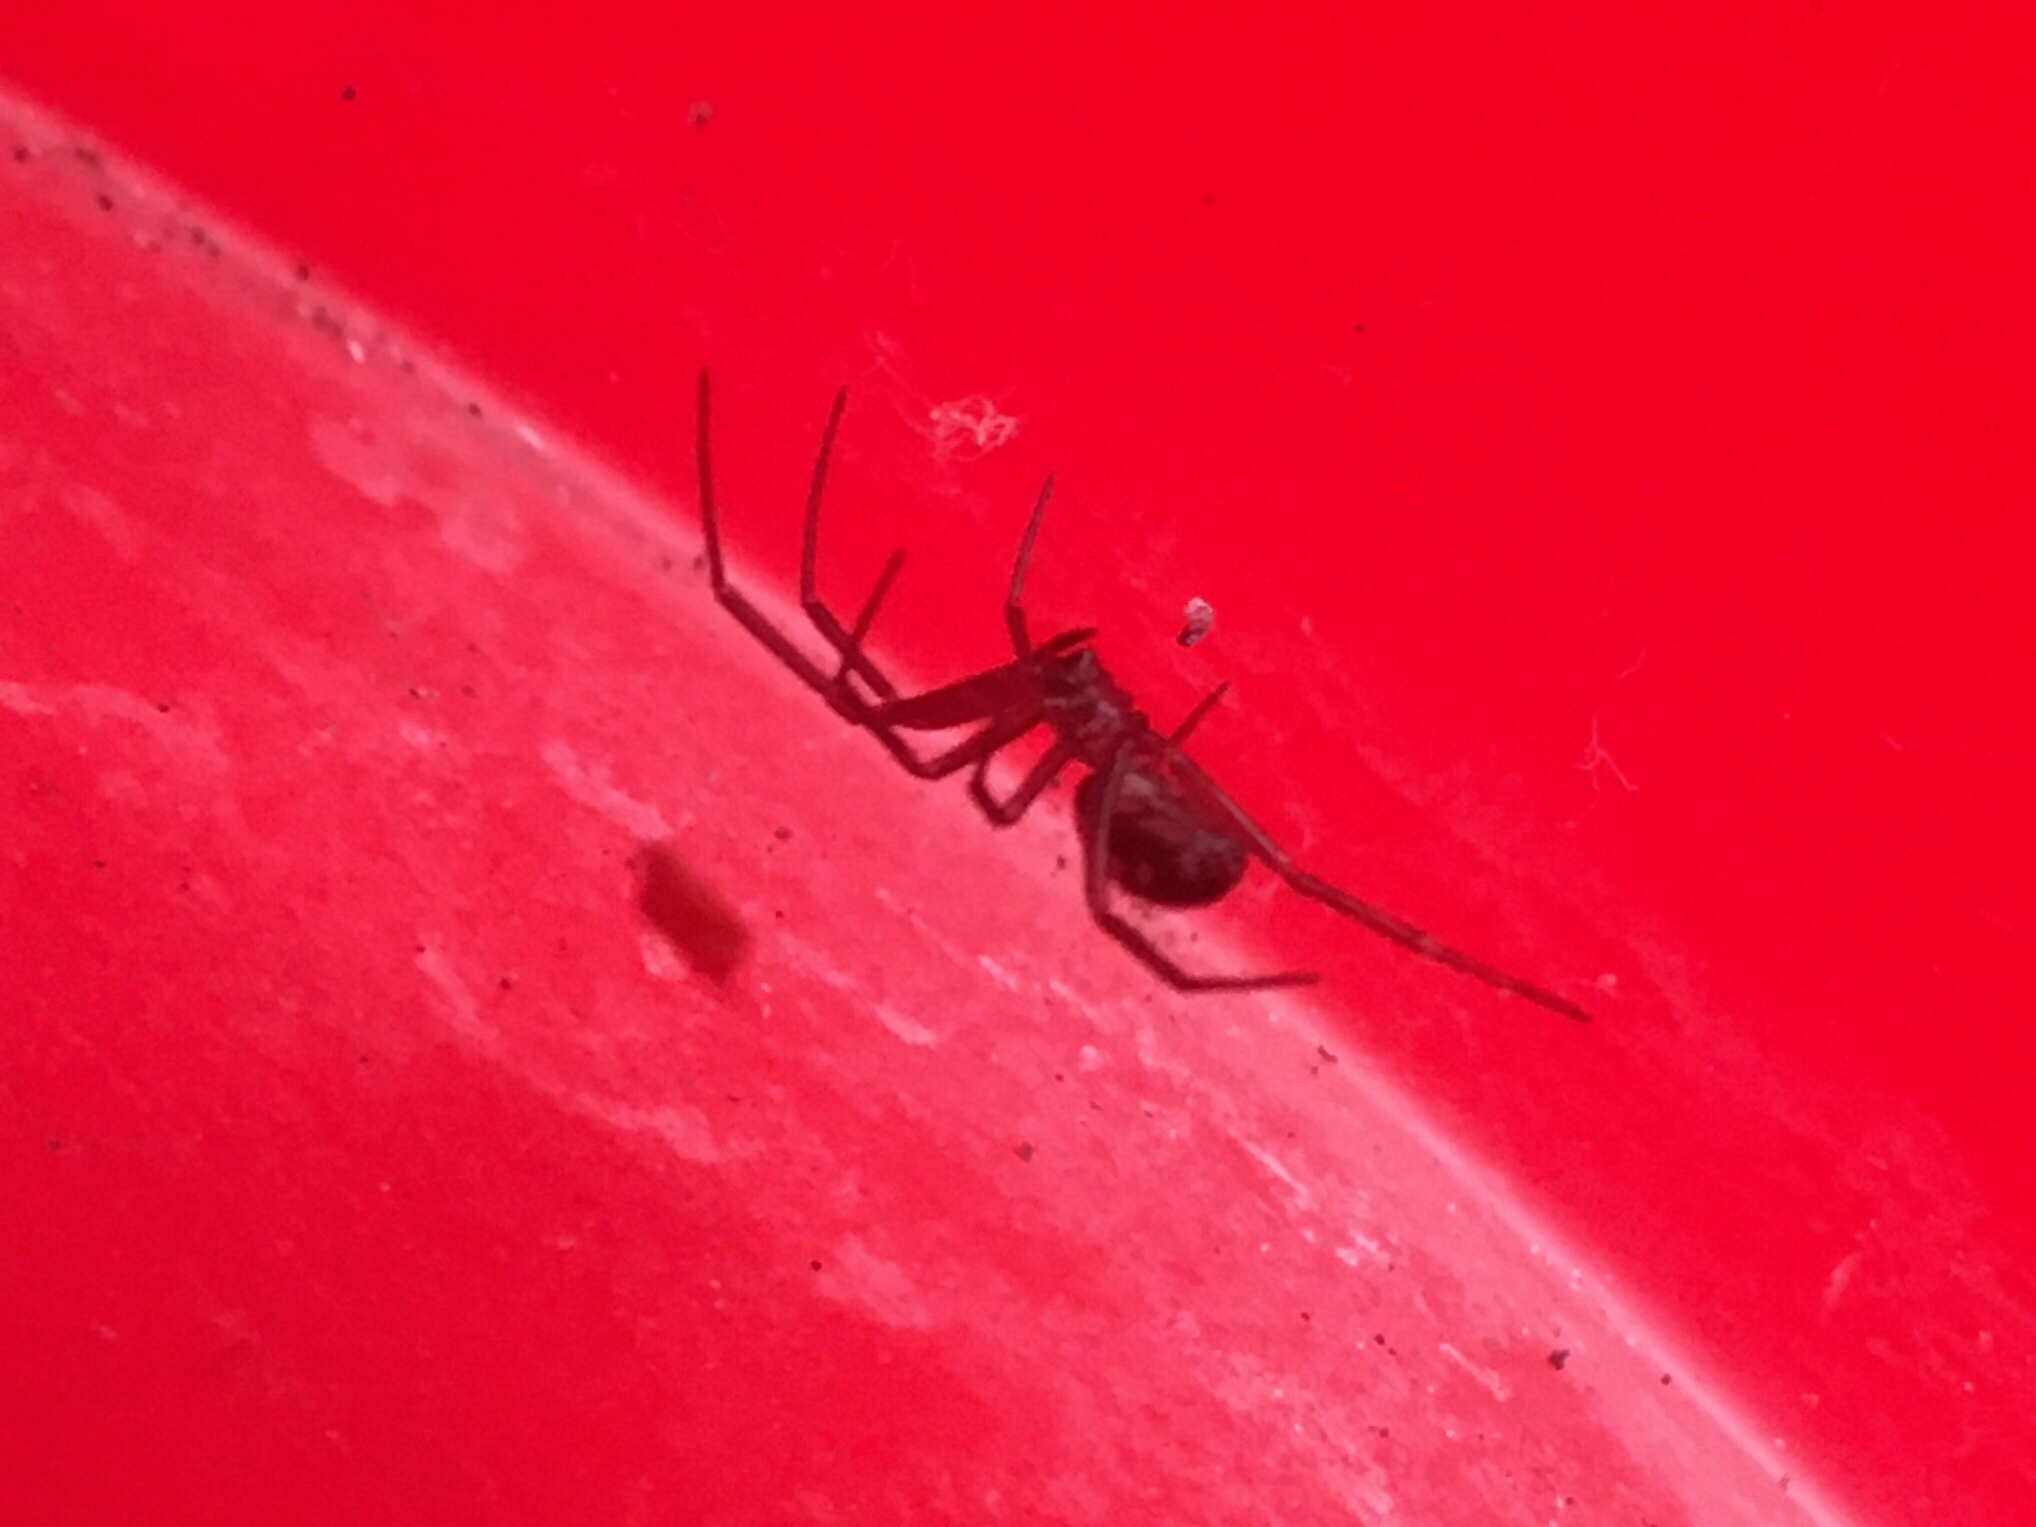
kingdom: Animalia
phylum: Arthropoda
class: Arachnida
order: Araneae
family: Theridiidae
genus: Steatoda
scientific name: Steatoda grossa
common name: False black widow
